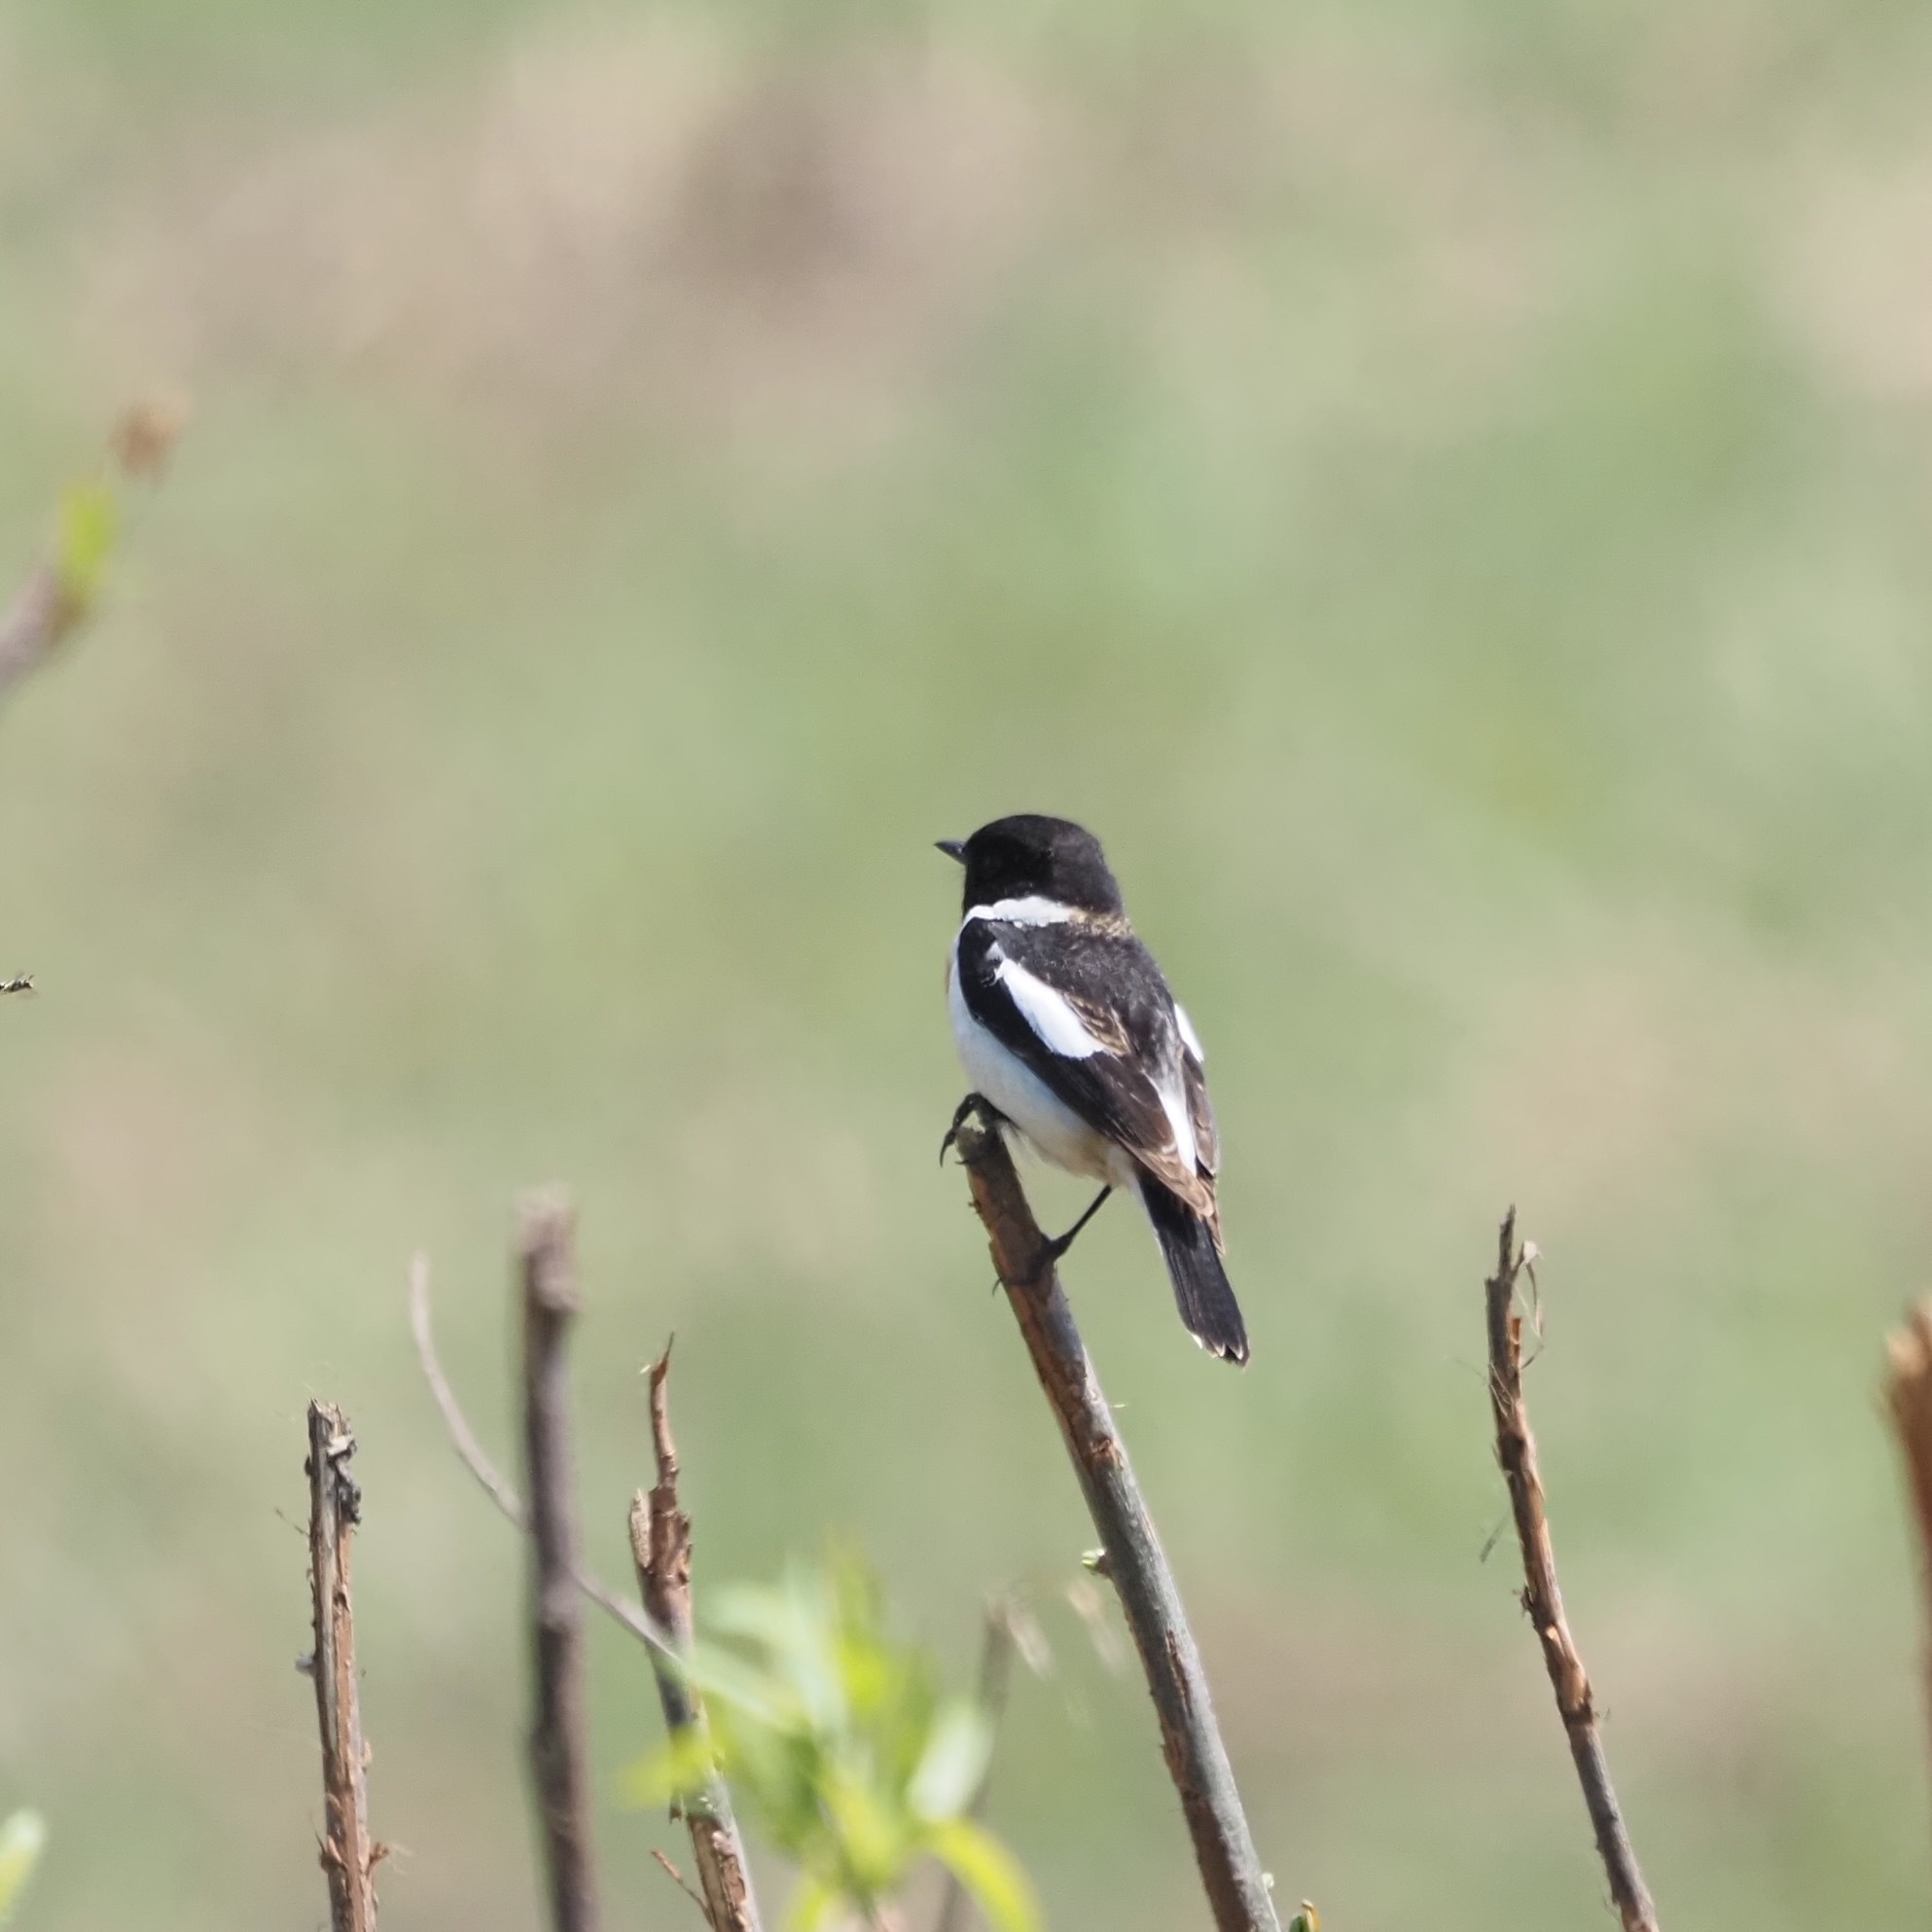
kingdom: Animalia
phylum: Chordata
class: Aves
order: Passeriformes
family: Muscicapidae
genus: Saxicola
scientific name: Saxicola stejnegeri
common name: Stejneger's stonechat
